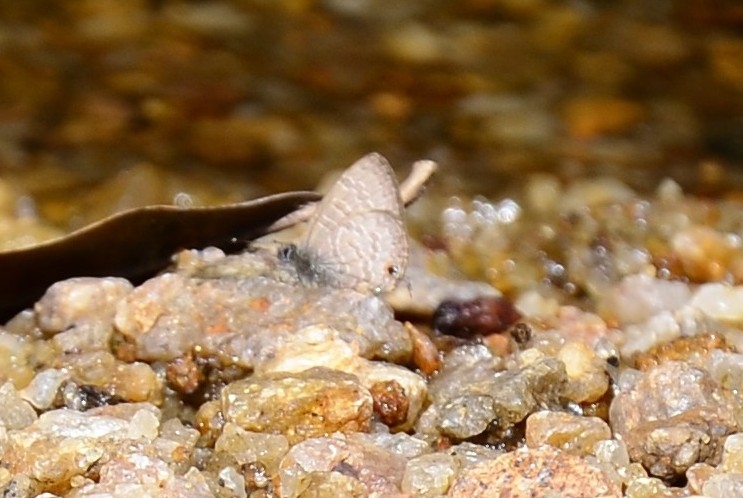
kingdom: Animalia
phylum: Arthropoda
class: Insecta
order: Lepidoptera
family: Lycaenidae
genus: Prosotas
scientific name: Prosotas nora
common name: Common line blue
